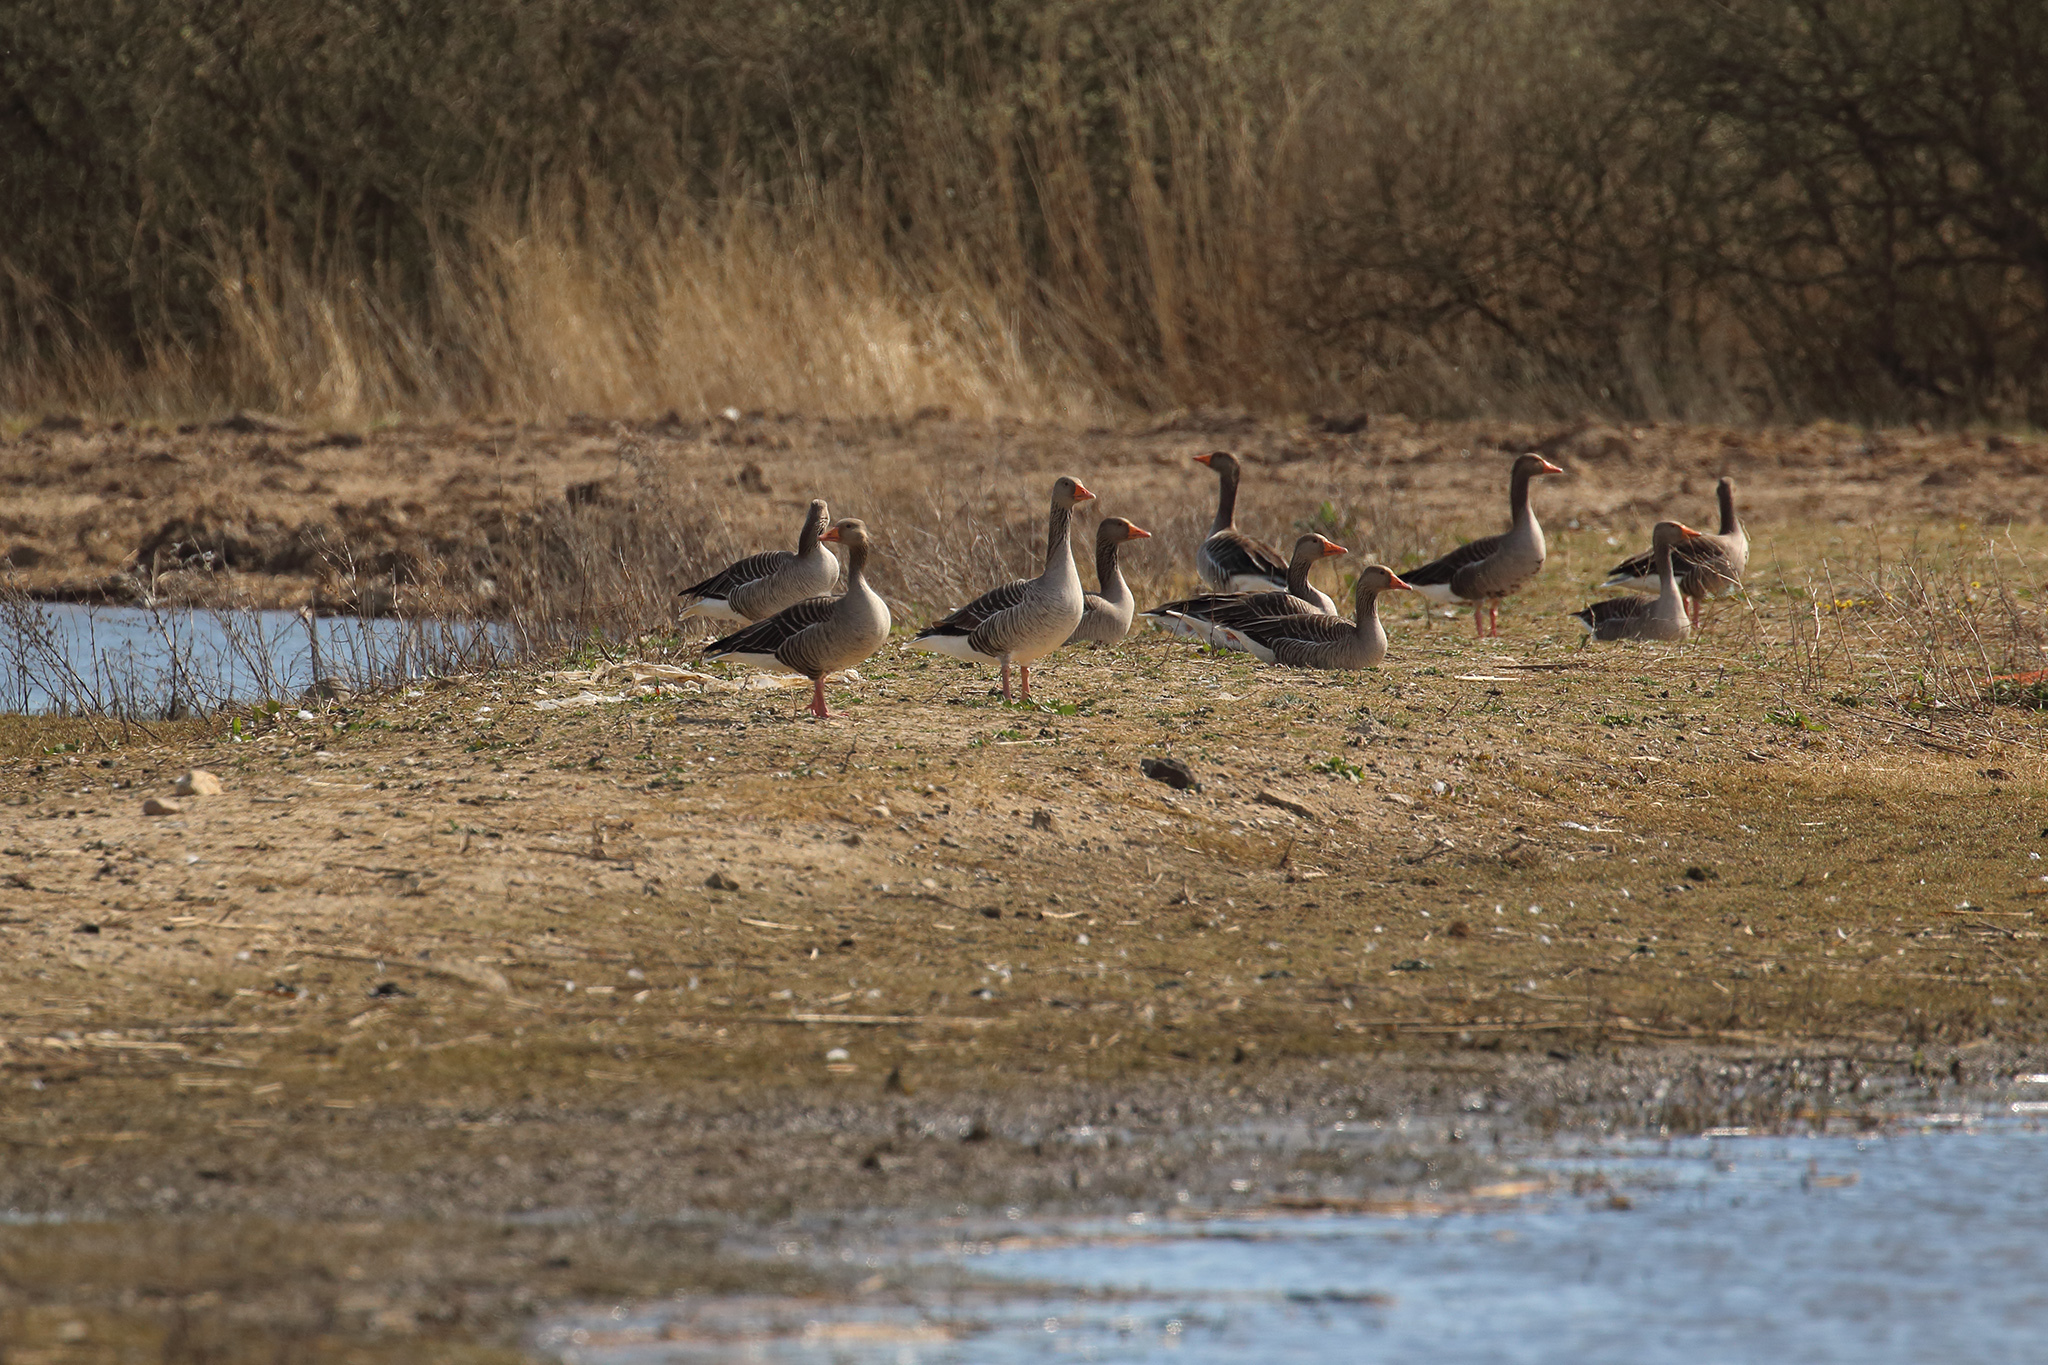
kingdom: Animalia
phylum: Chordata
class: Aves
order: Anseriformes
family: Anatidae
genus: Anser
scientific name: Anser anser
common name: Greylag goose
